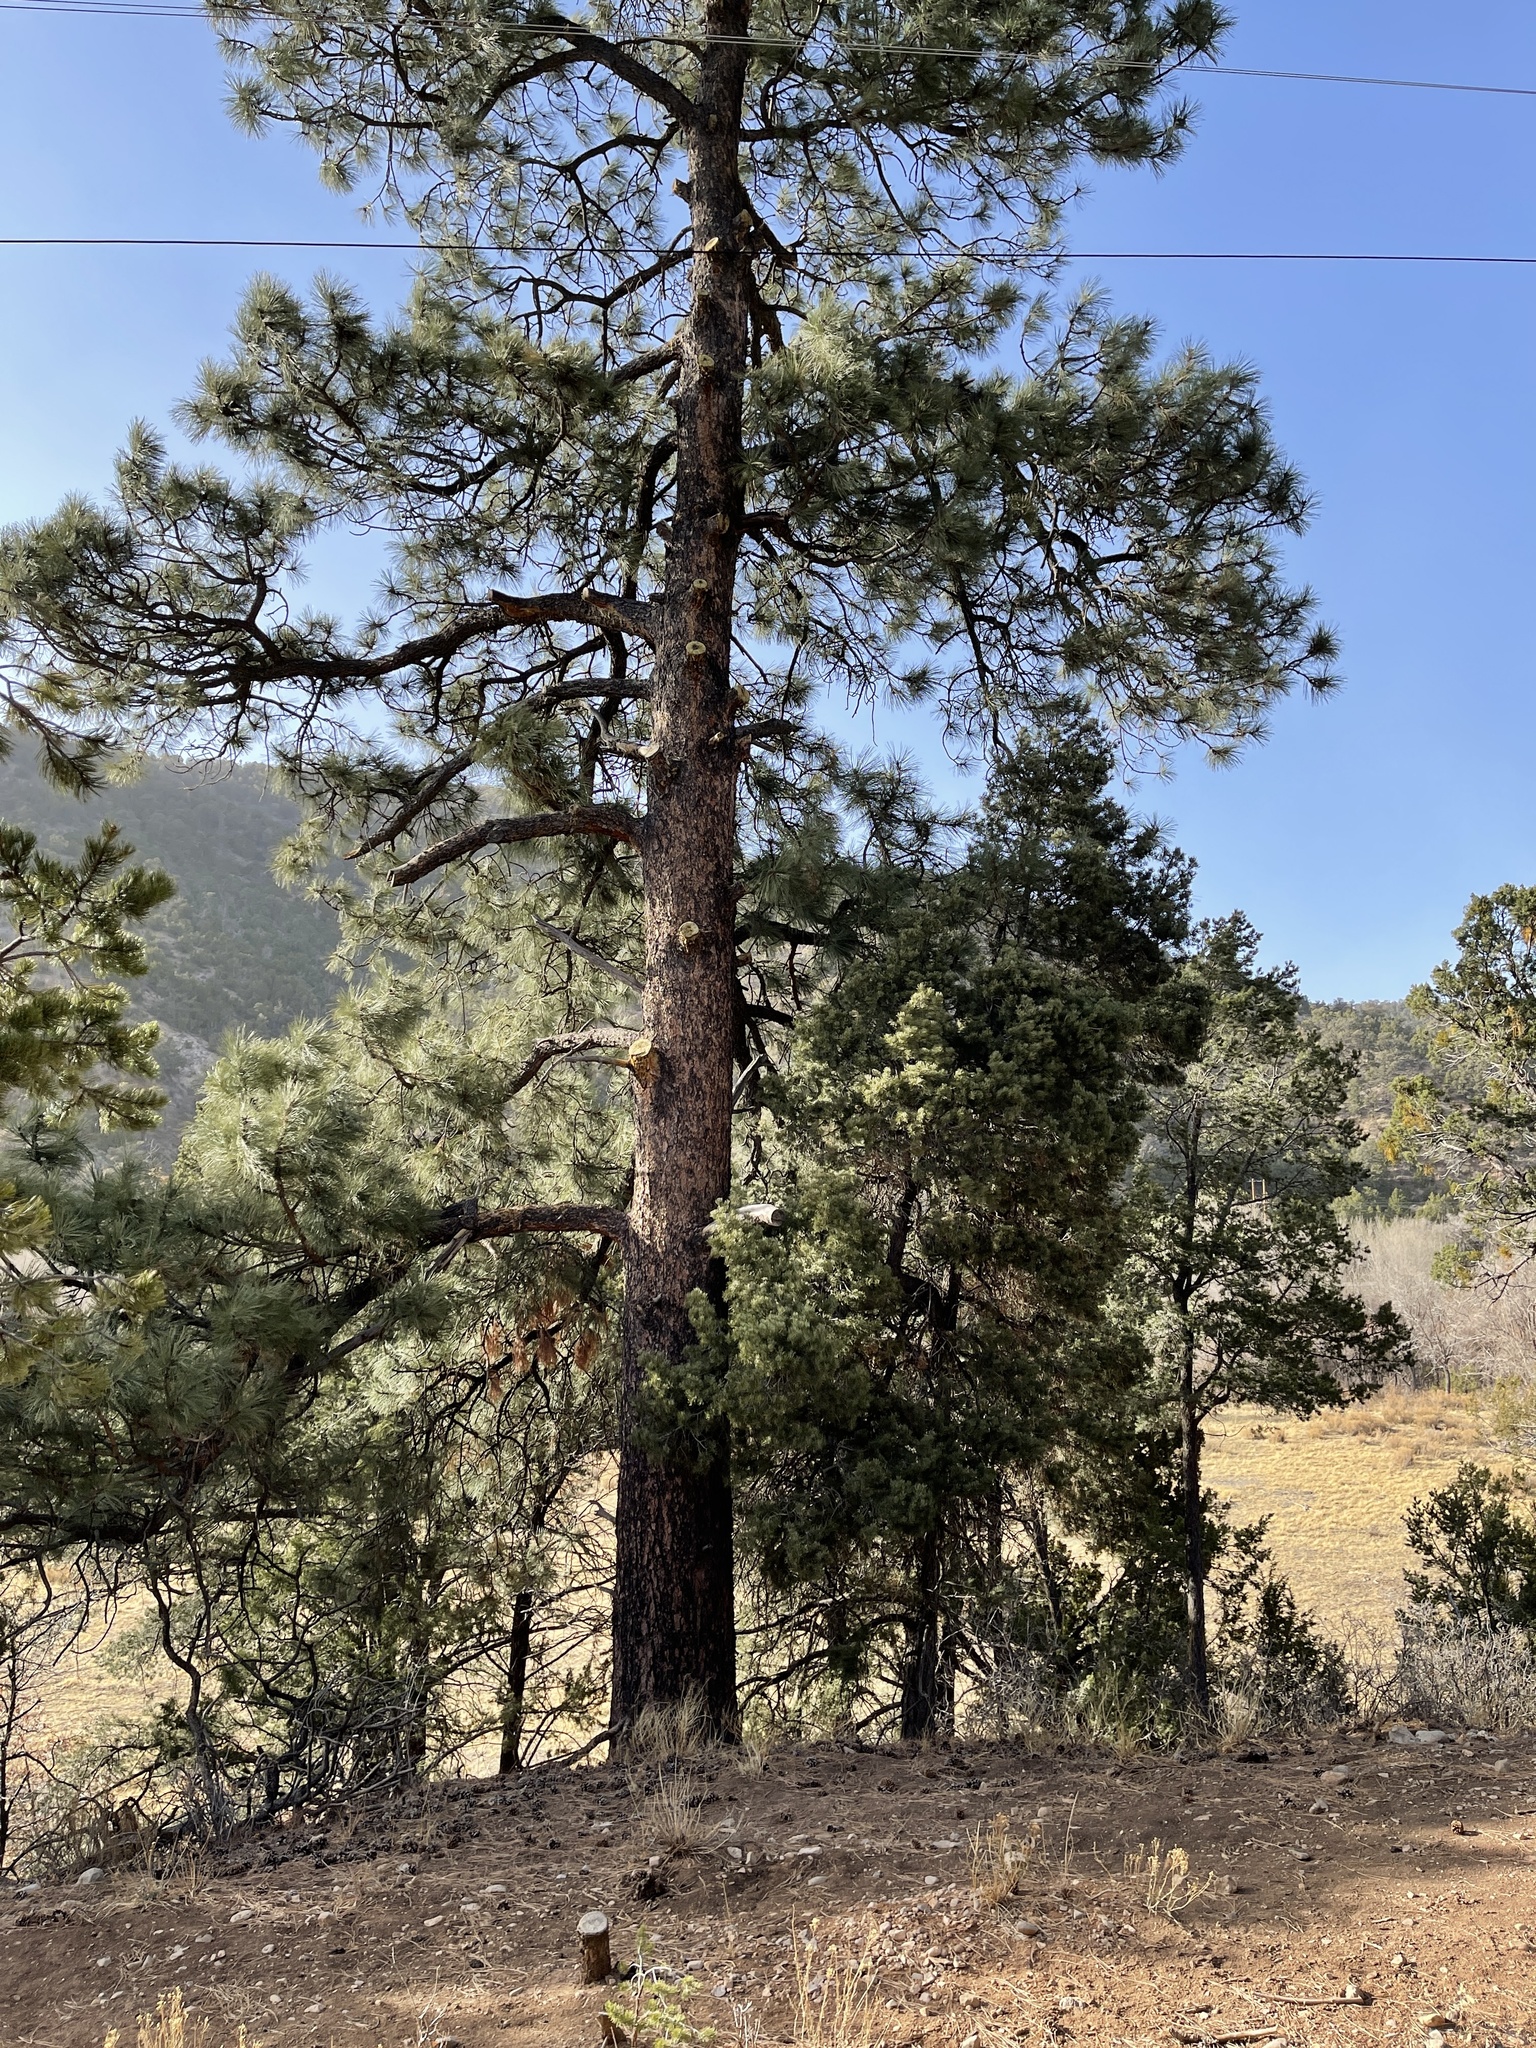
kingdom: Plantae
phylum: Tracheophyta
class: Pinopsida
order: Pinales
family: Pinaceae
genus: Pinus
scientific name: Pinus ponderosa
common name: Western yellow-pine
